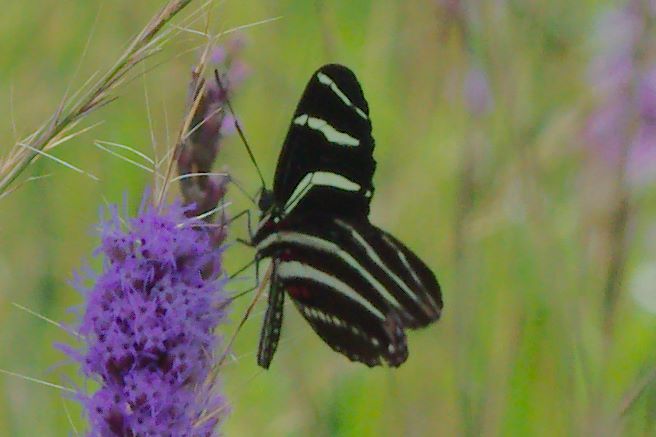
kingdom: Animalia
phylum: Arthropoda
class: Insecta
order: Lepidoptera
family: Nymphalidae
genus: Heliconius
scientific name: Heliconius charithonia
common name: Zebra long wing
